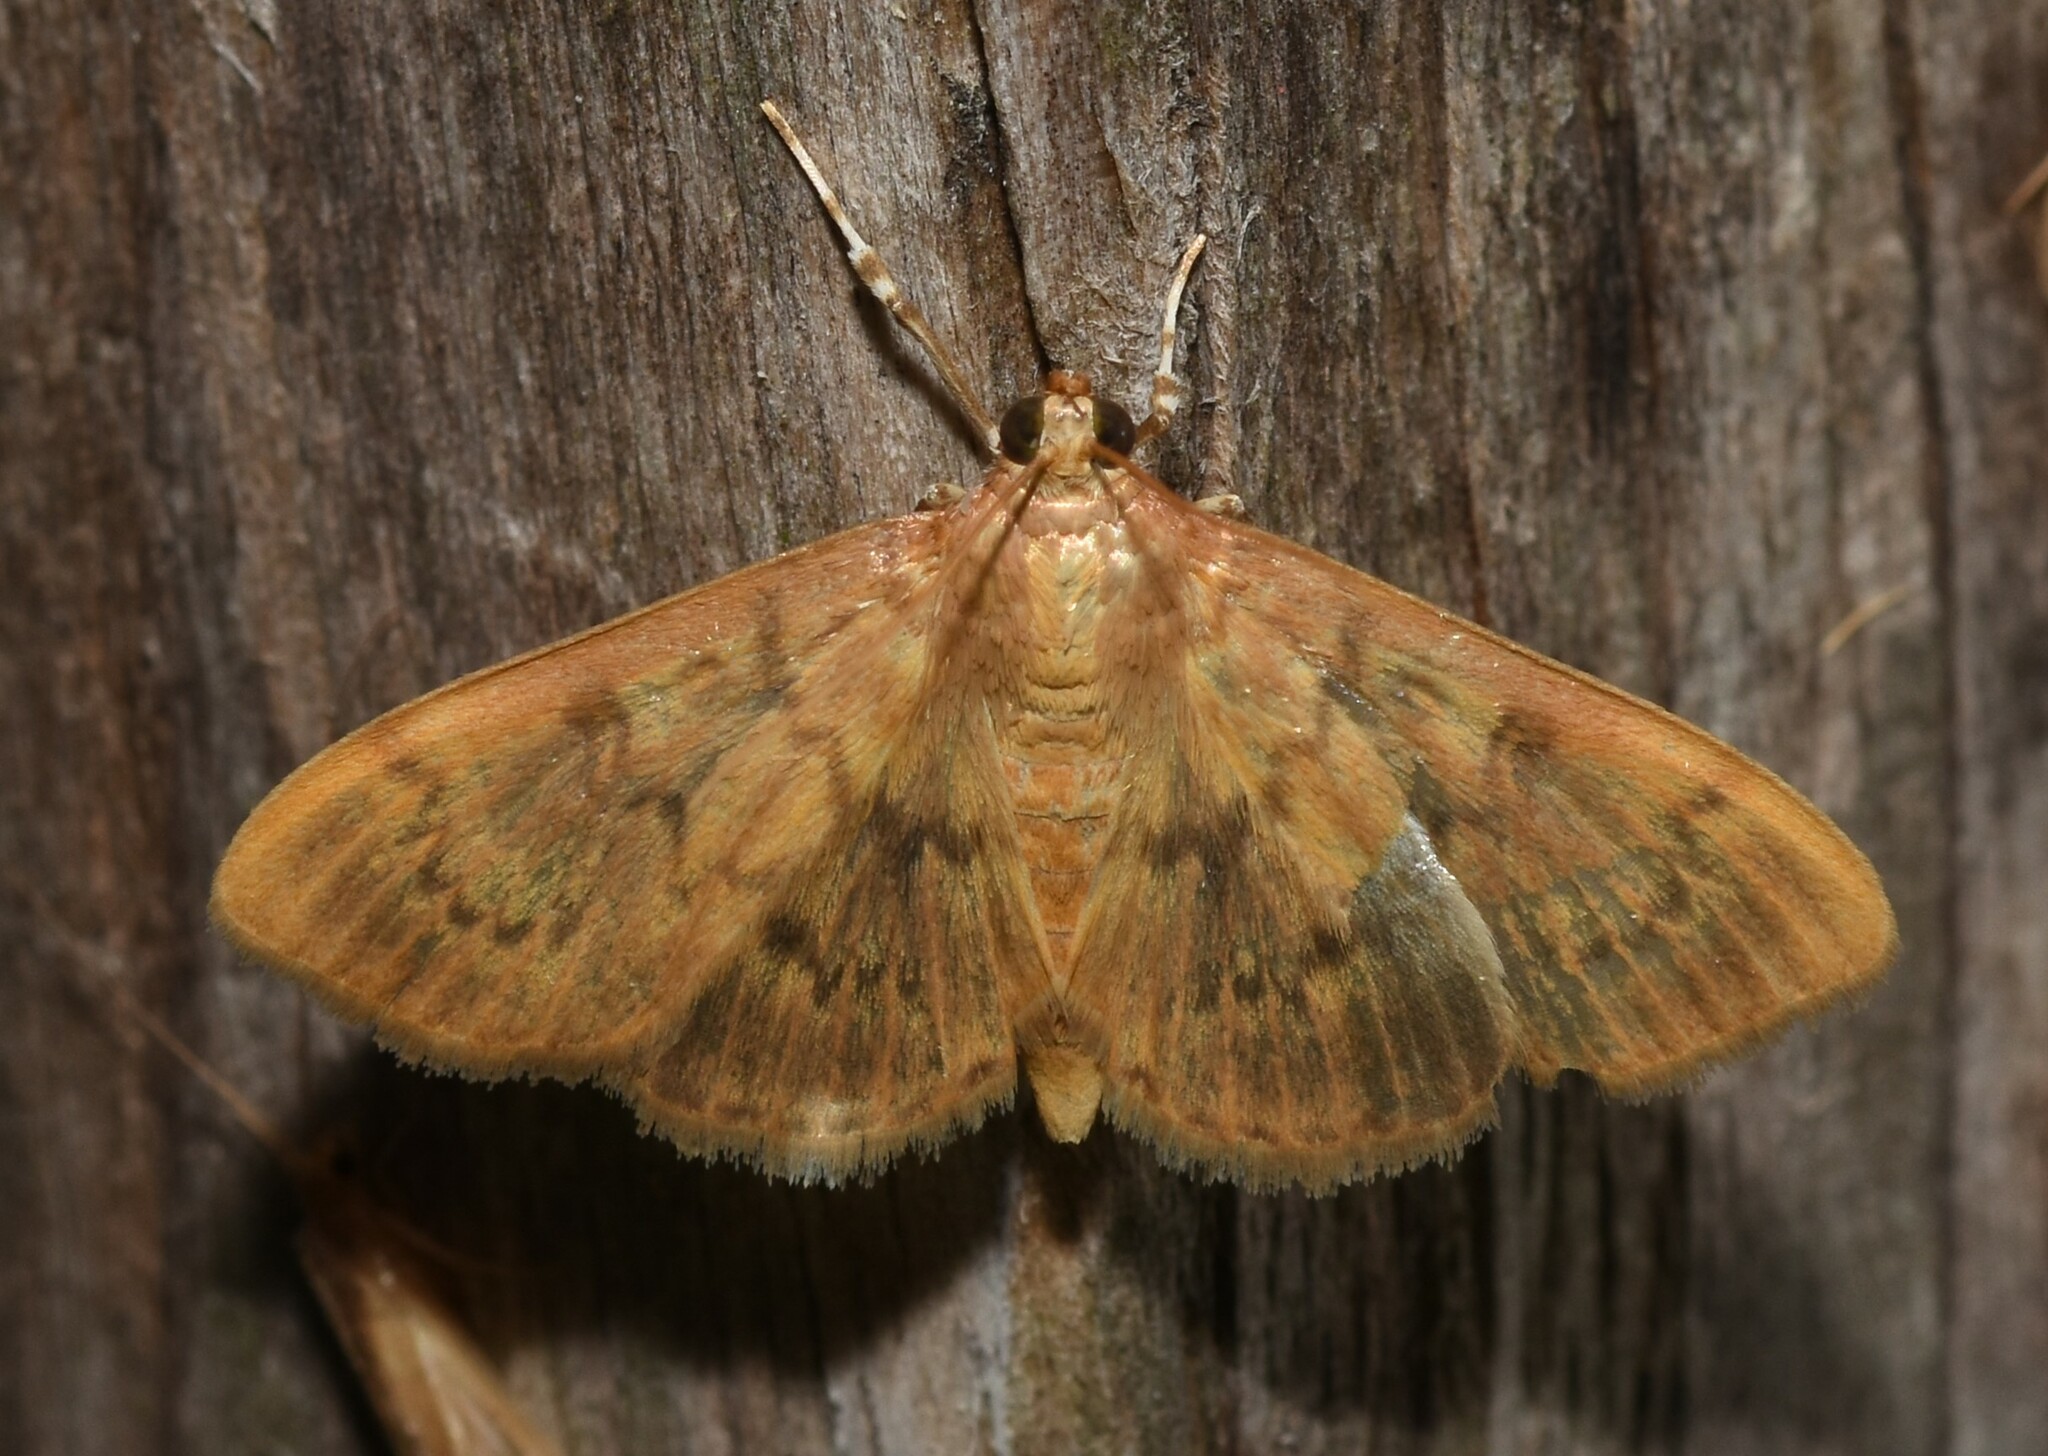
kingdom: Animalia
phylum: Arthropoda
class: Insecta
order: Lepidoptera
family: Crambidae
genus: Syllepte
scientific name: Syllepte obscuralis
